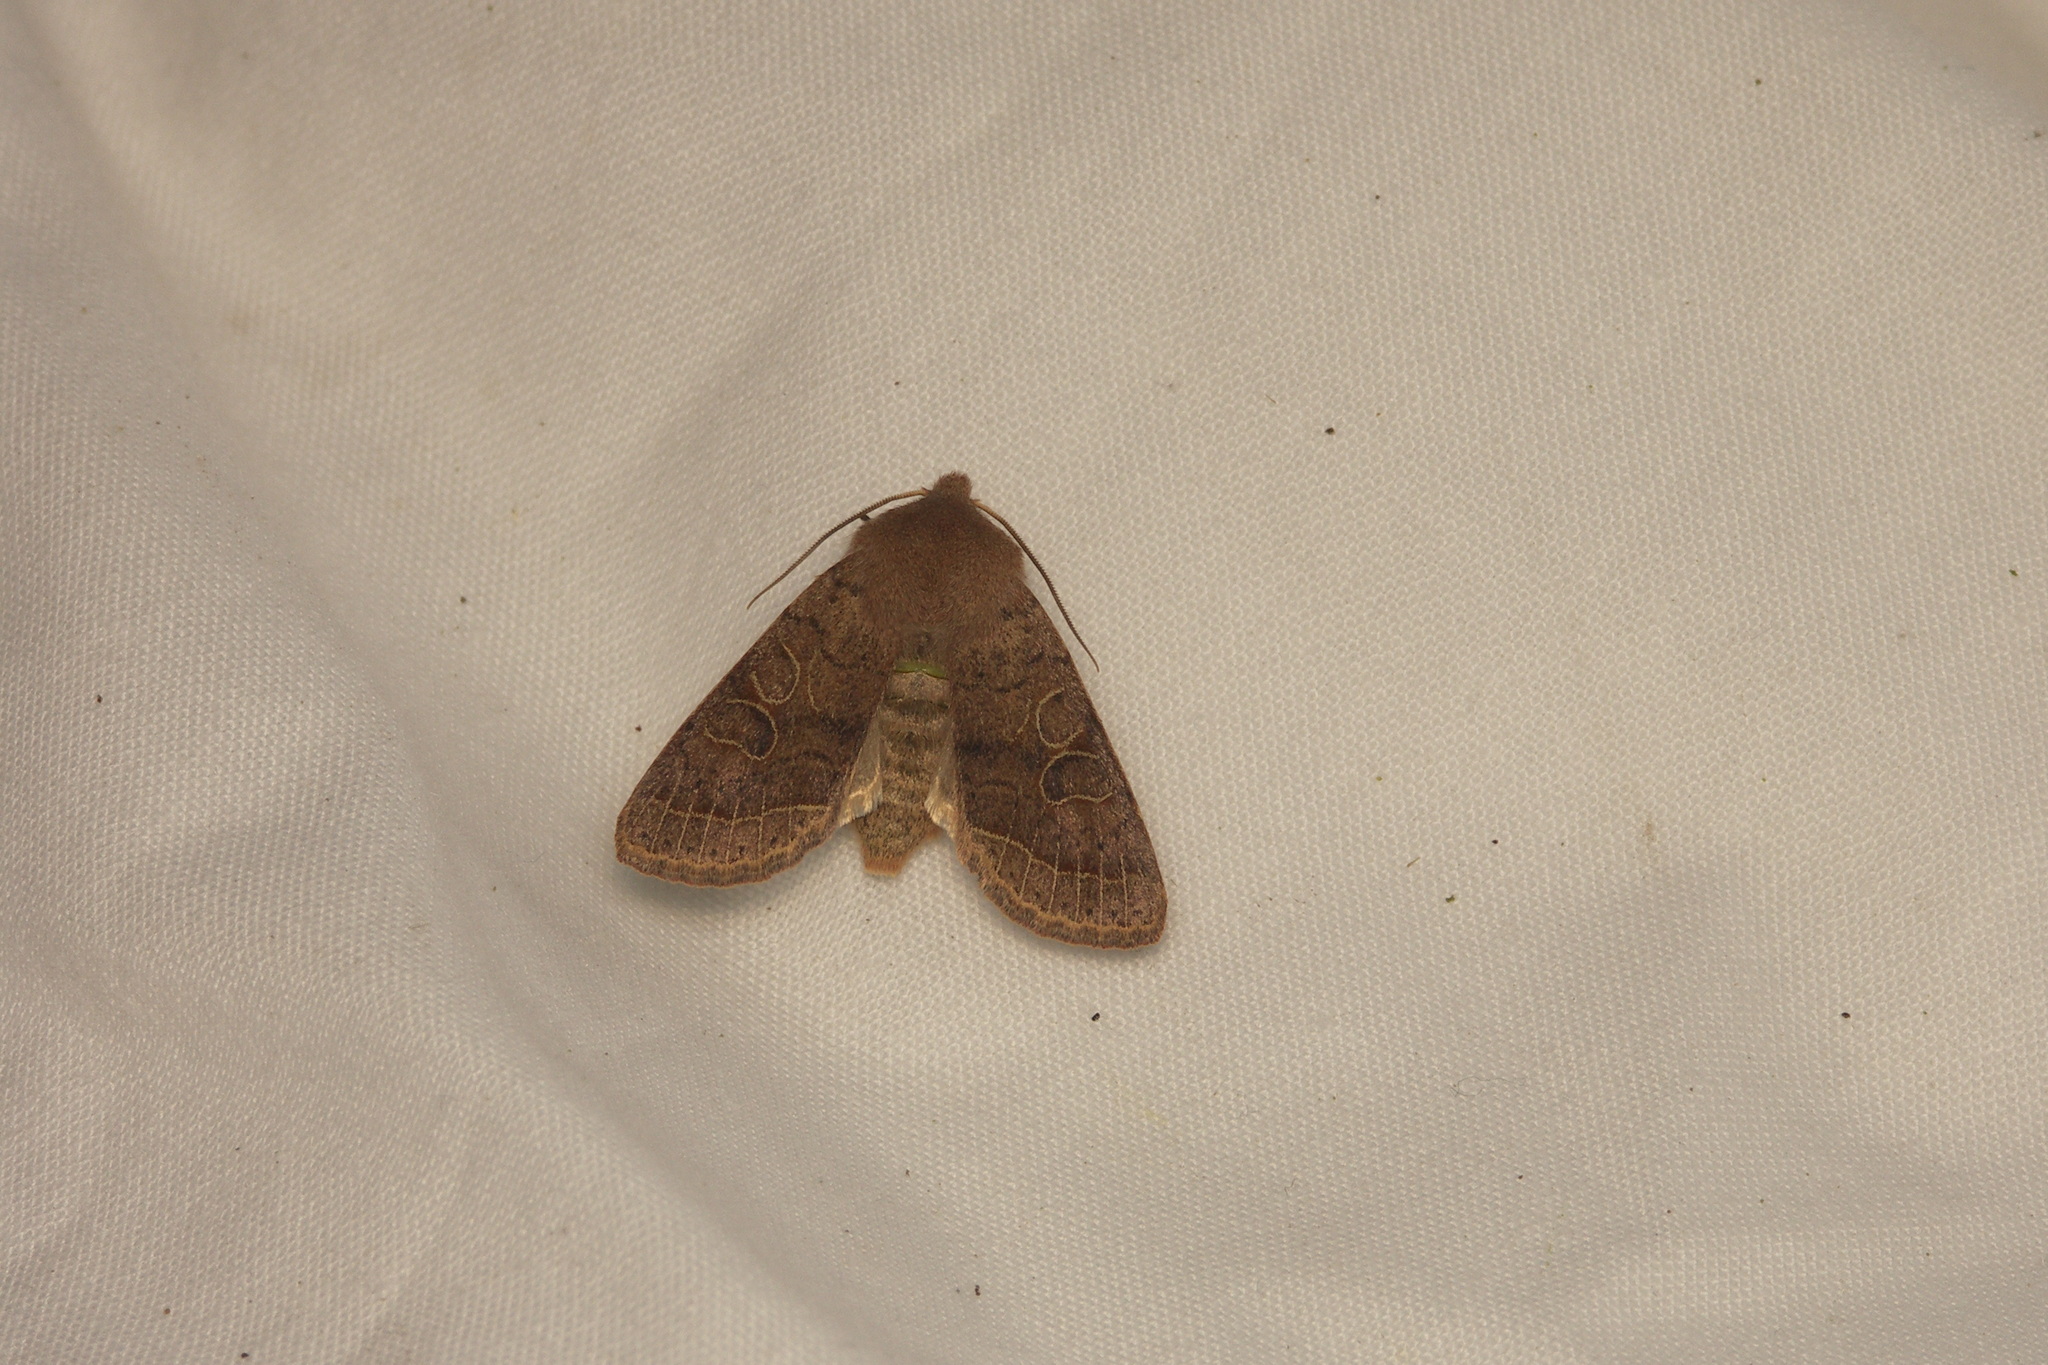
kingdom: Animalia
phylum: Arthropoda
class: Insecta
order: Lepidoptera
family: Noctuidae
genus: Orthosia
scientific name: Orthosia cerasi
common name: Common quaker
